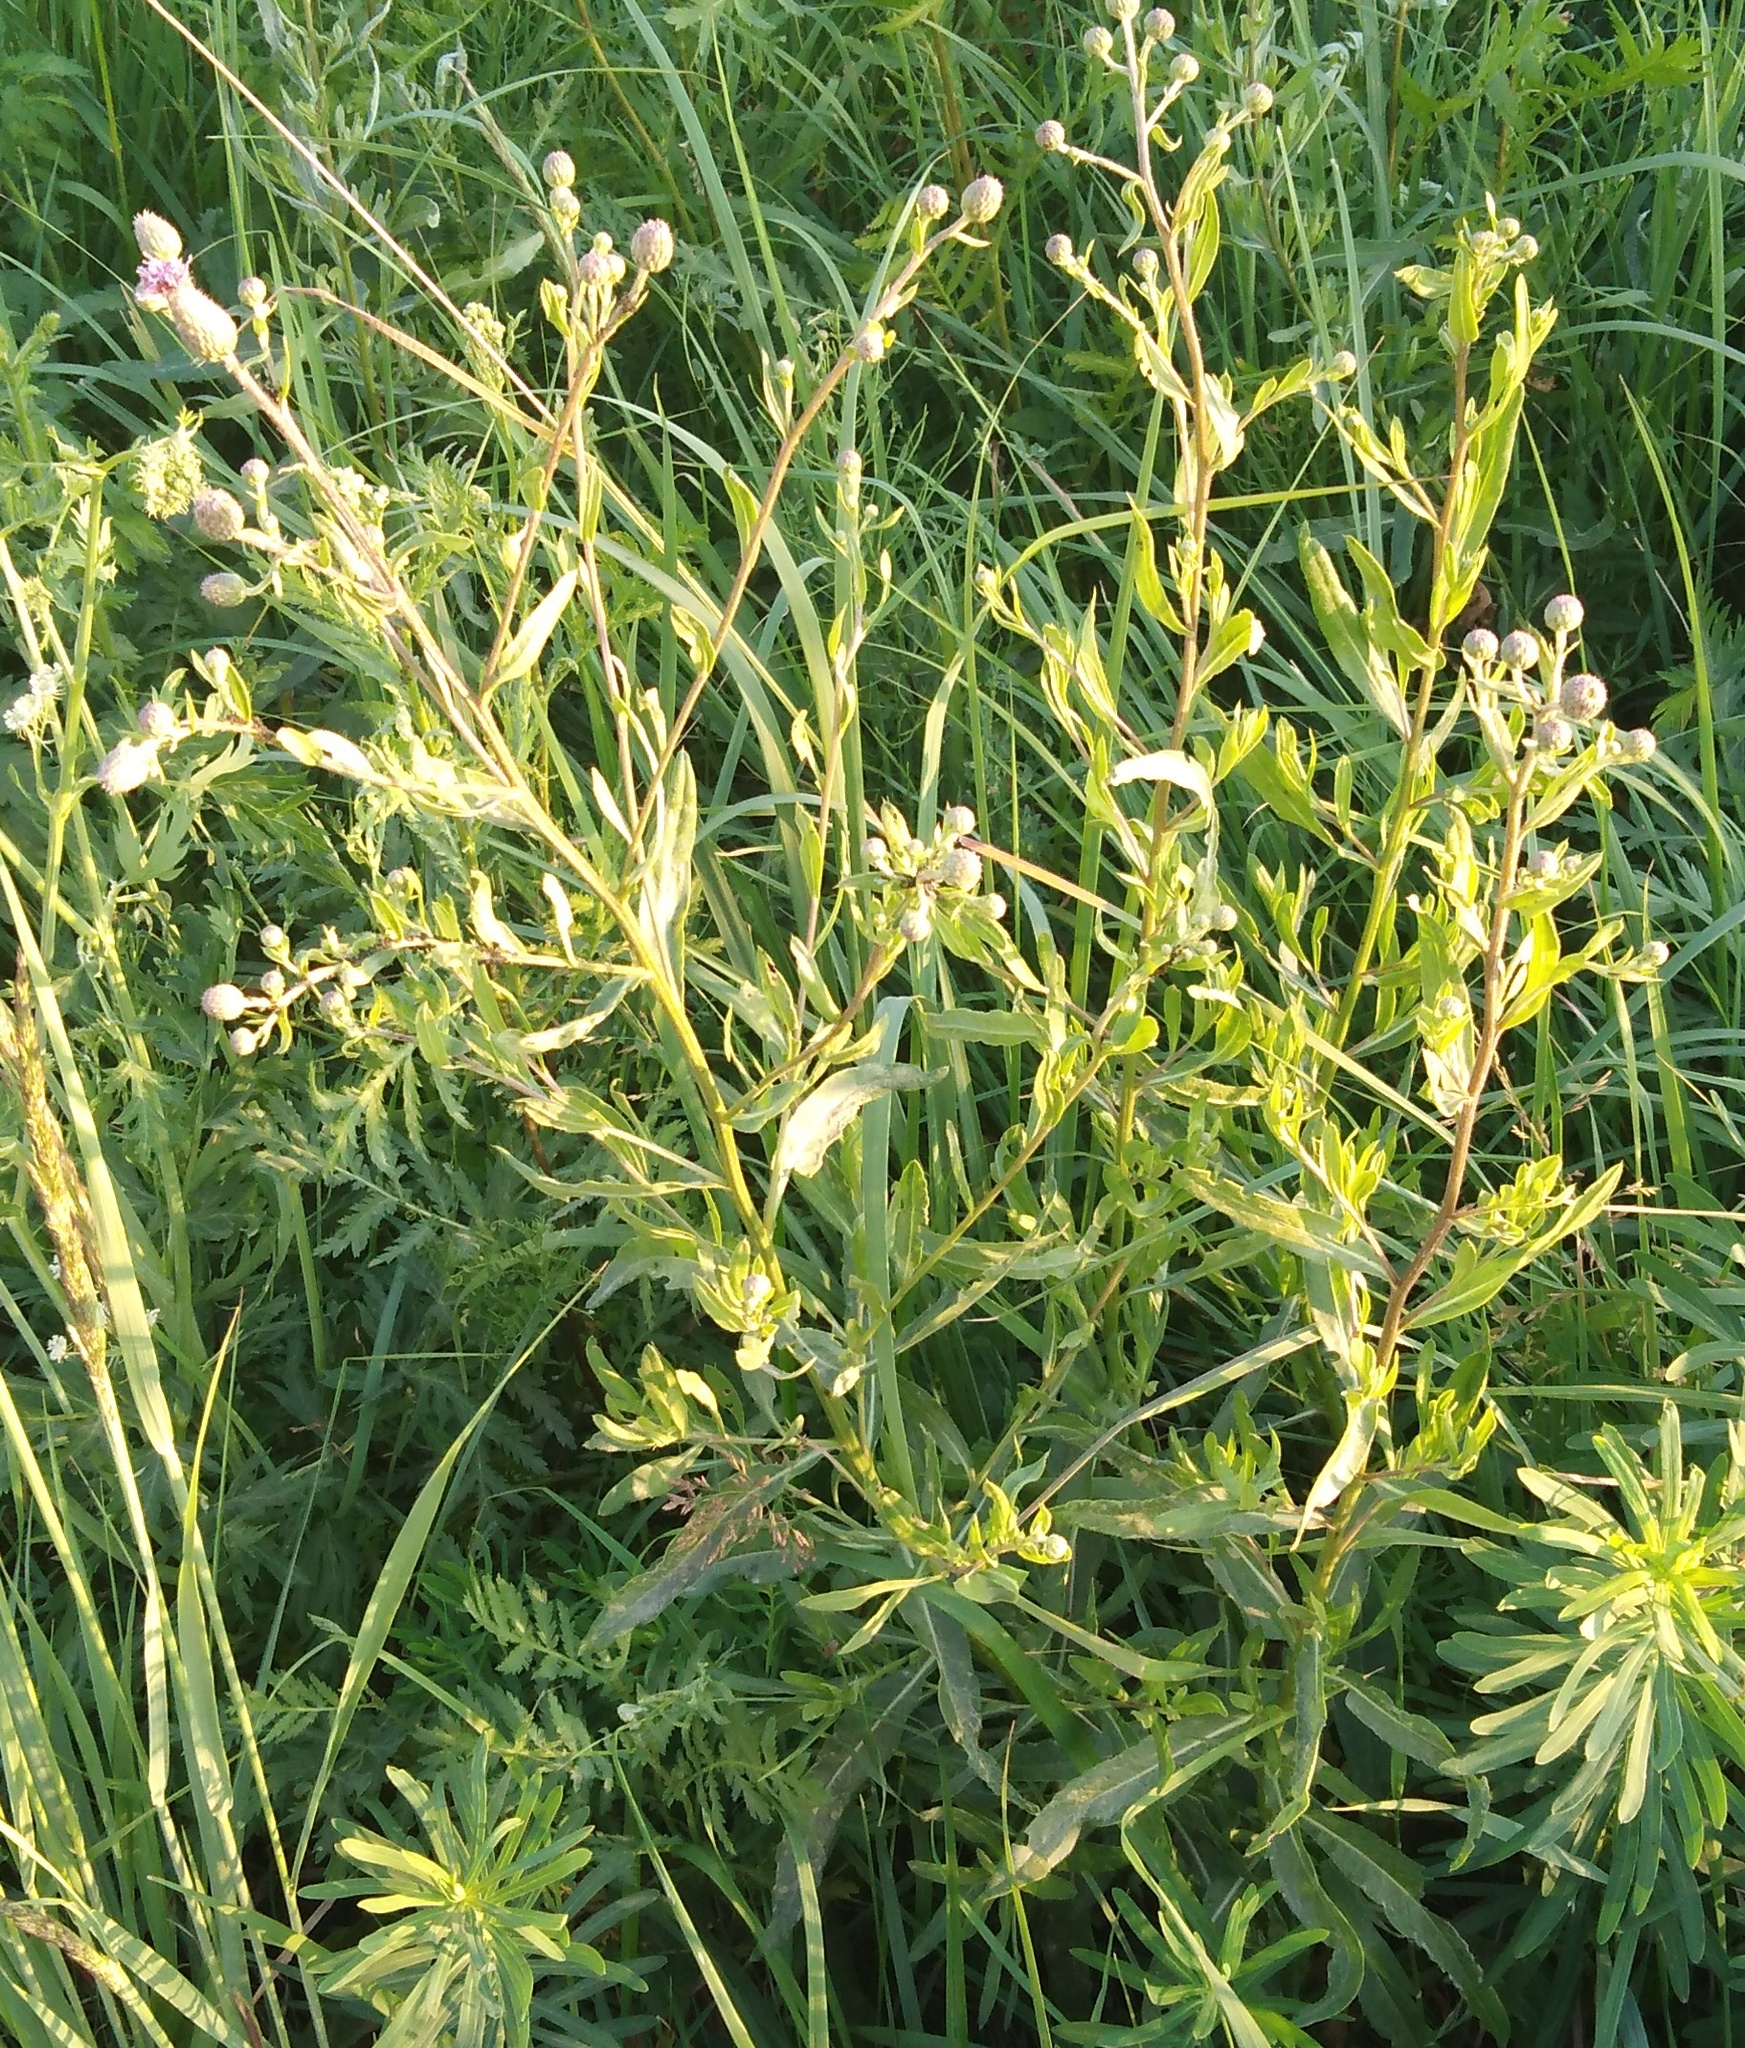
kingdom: Plantae
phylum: Tracheophyta
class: Magnoliopsida
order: Asterales
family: Asteraceae
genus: Cirsium
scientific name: Cirsium arvense
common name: Creeping thistle
